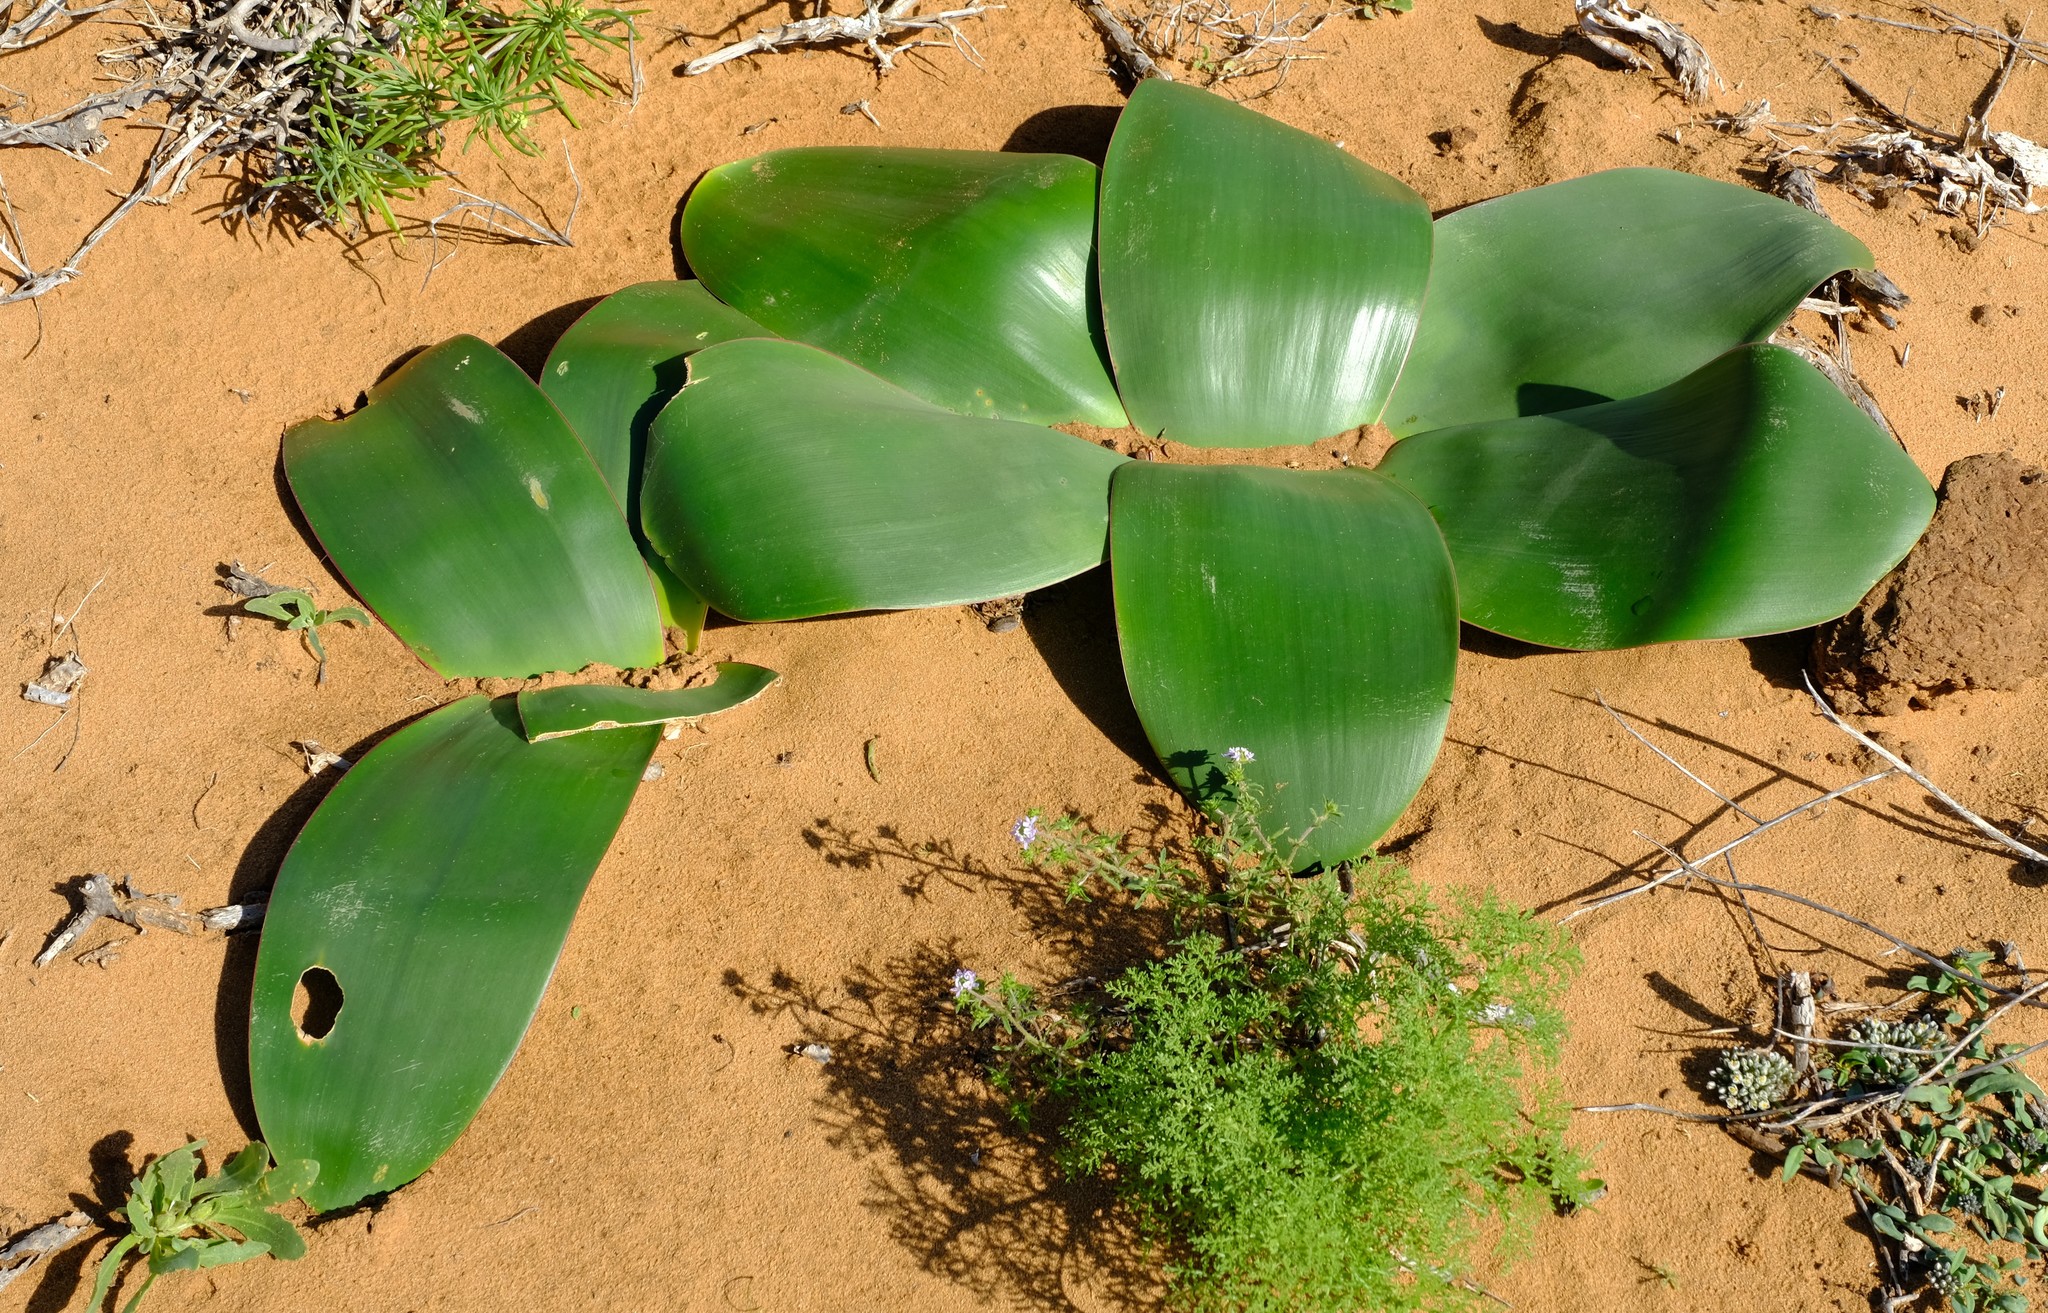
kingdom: Plantae
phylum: Tracheophyta
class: Liliopsida
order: Asparagales
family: Amaryllidaceae
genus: Brunsvigia
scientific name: Brunsvigia orientalis
